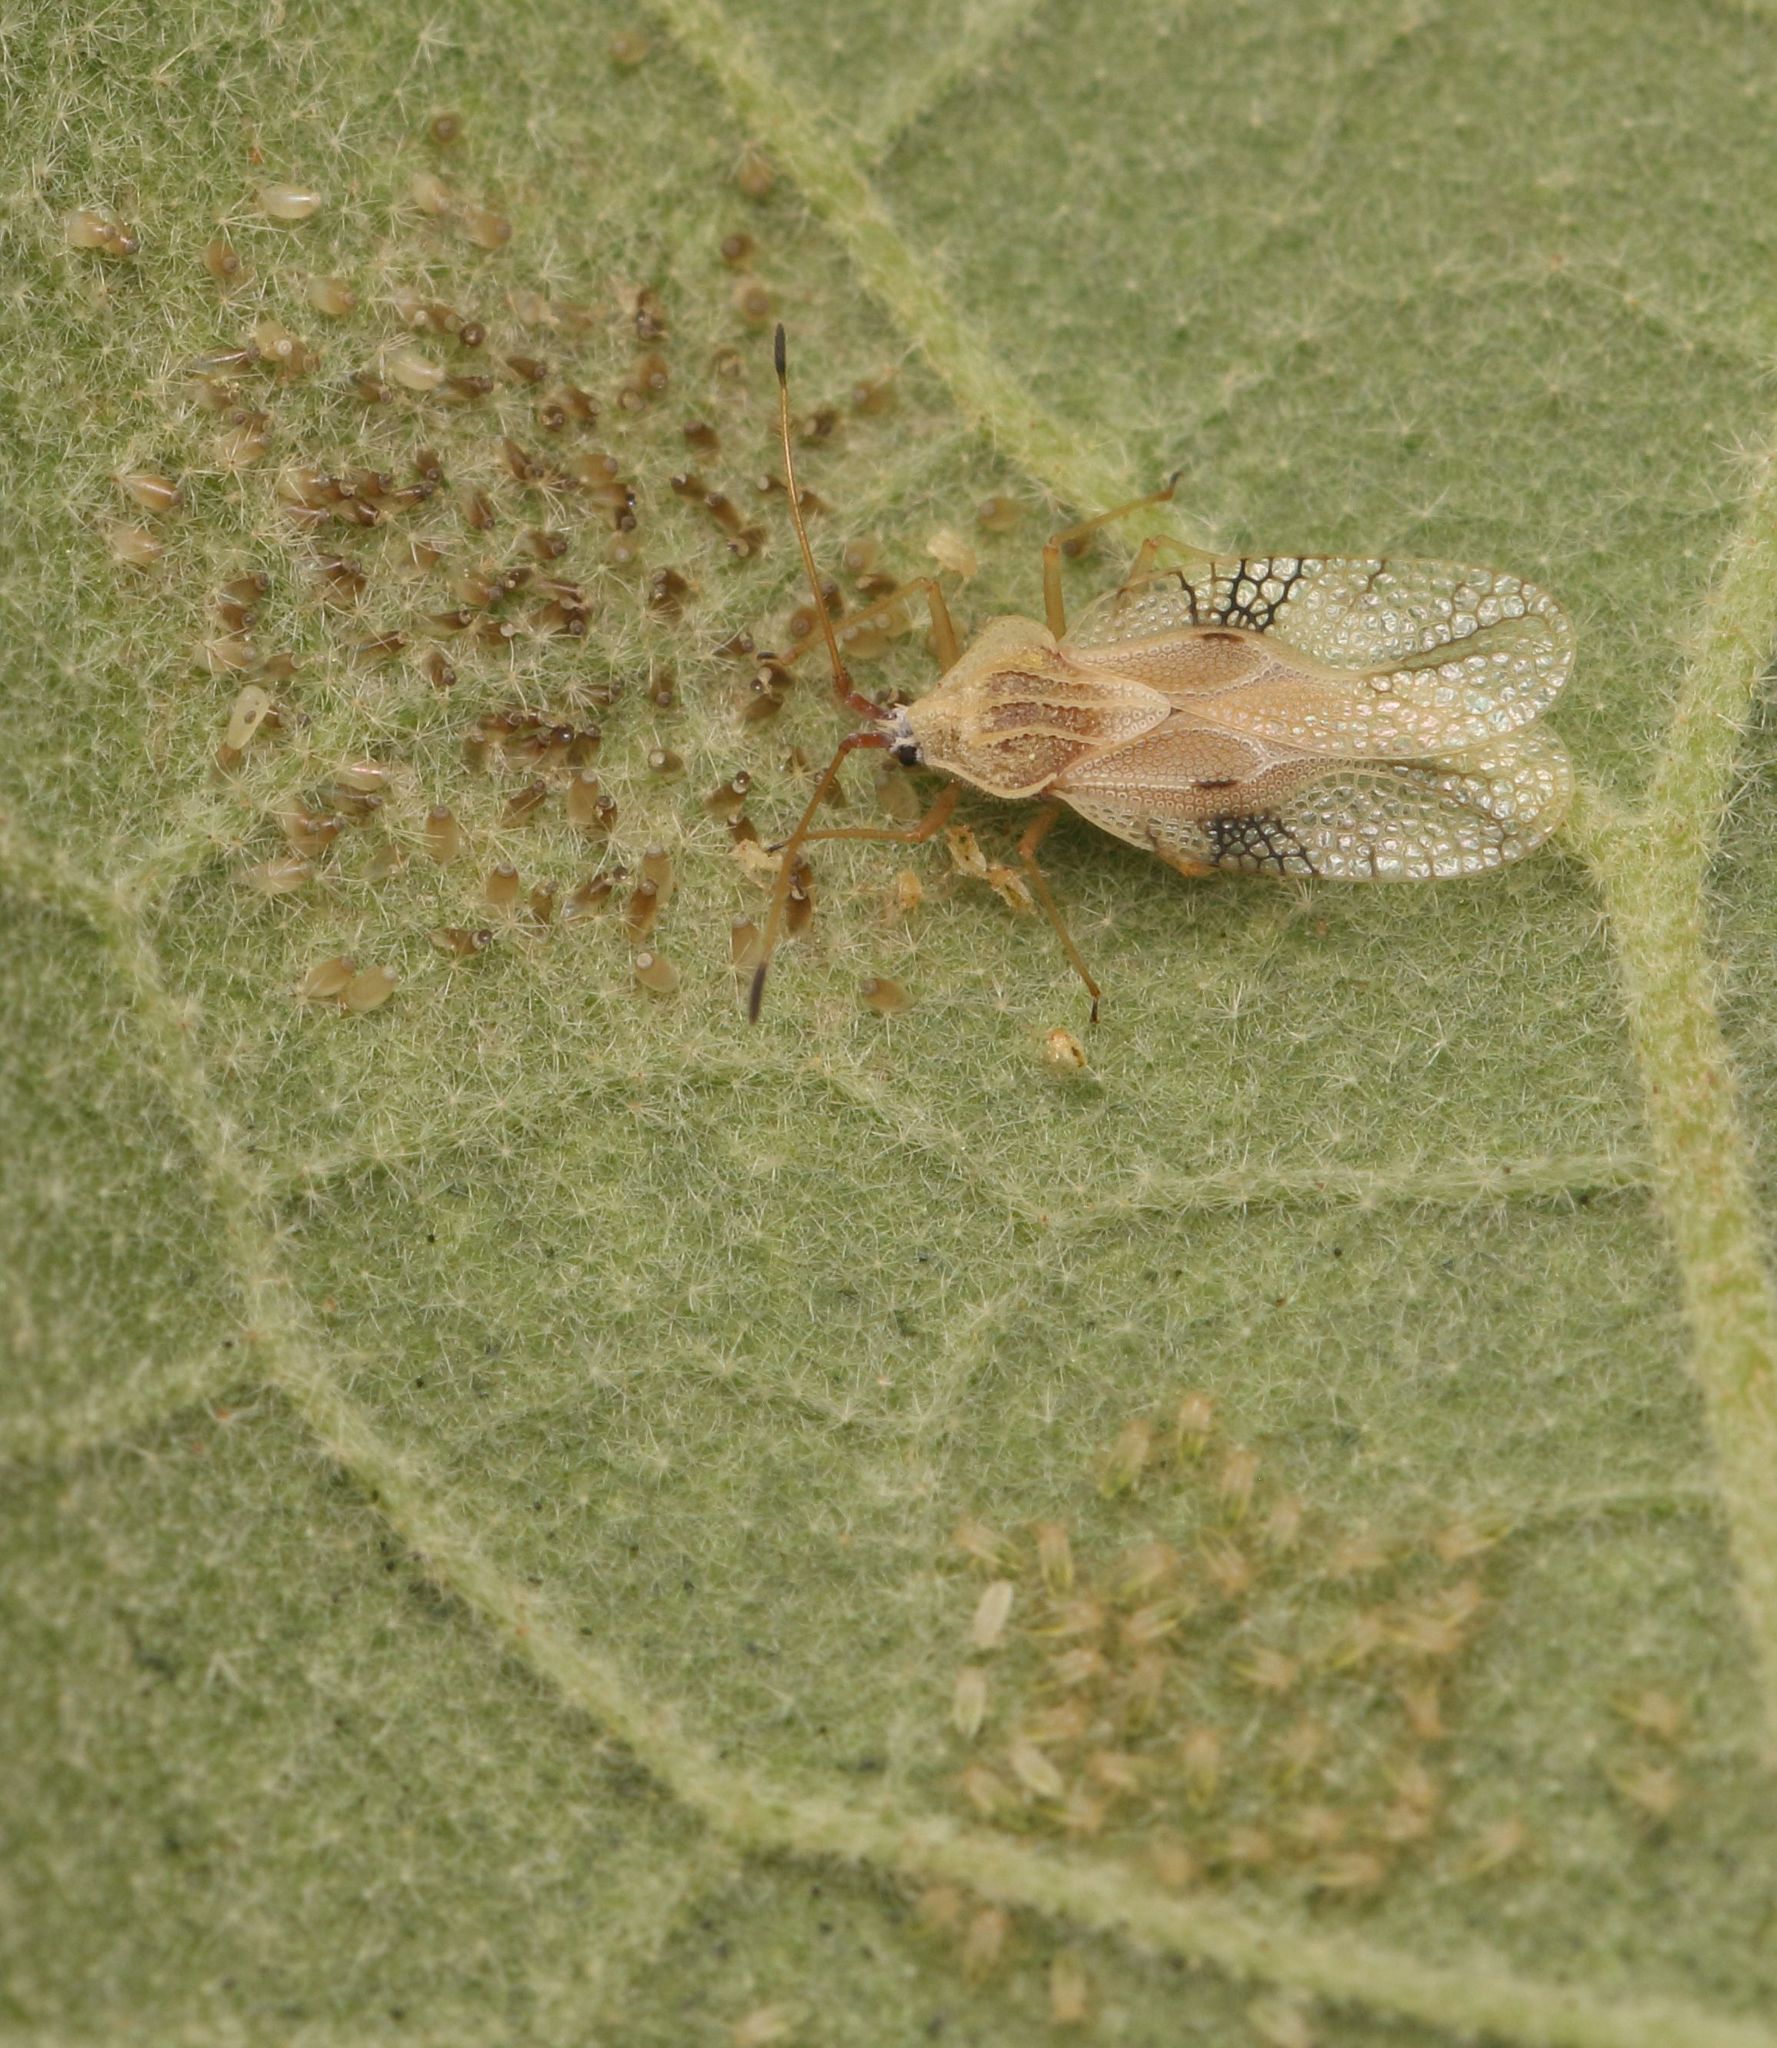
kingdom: Animalia
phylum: Arthropoda
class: Insecta
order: Hemiptera
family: Tingidae
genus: Gargaphia
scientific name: Gargaphia decoris
